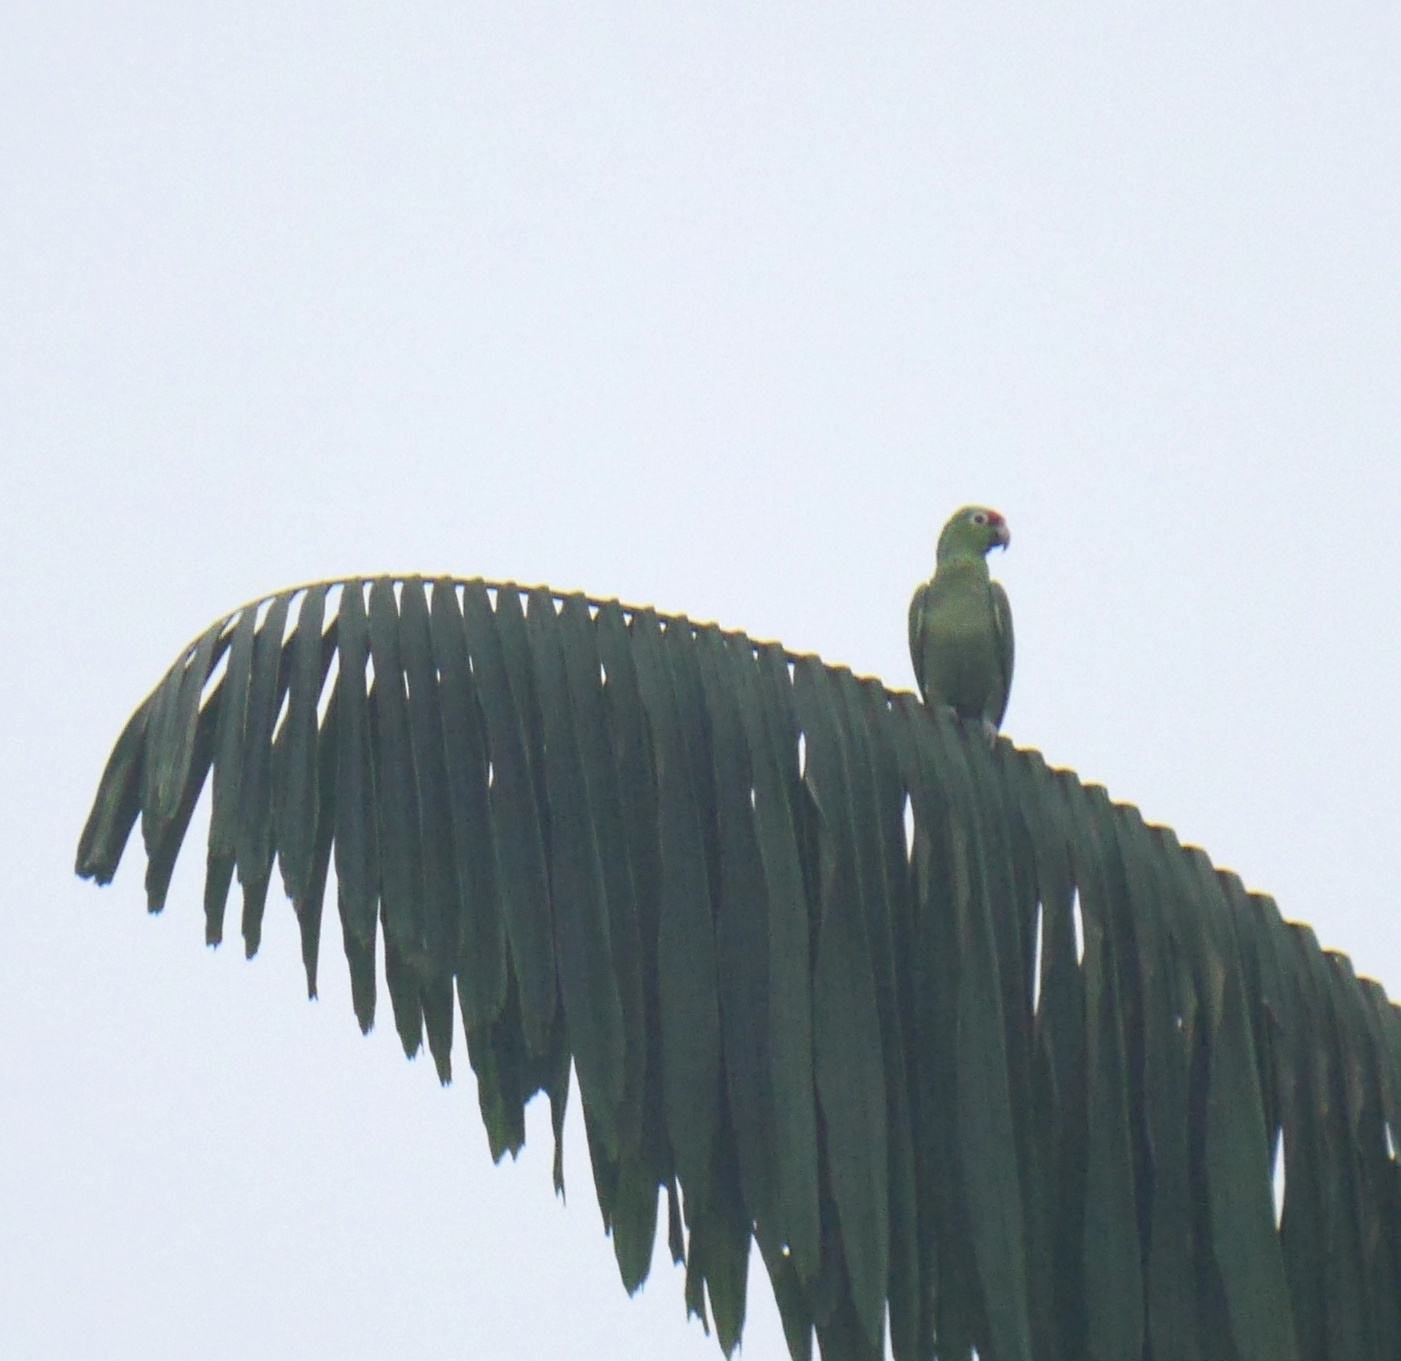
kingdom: Animalia
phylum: Chordata
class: Aves
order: Psittaciformes
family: Psittacidae
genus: Amazona
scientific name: Amazona autumnalis
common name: Red-lored amazon
